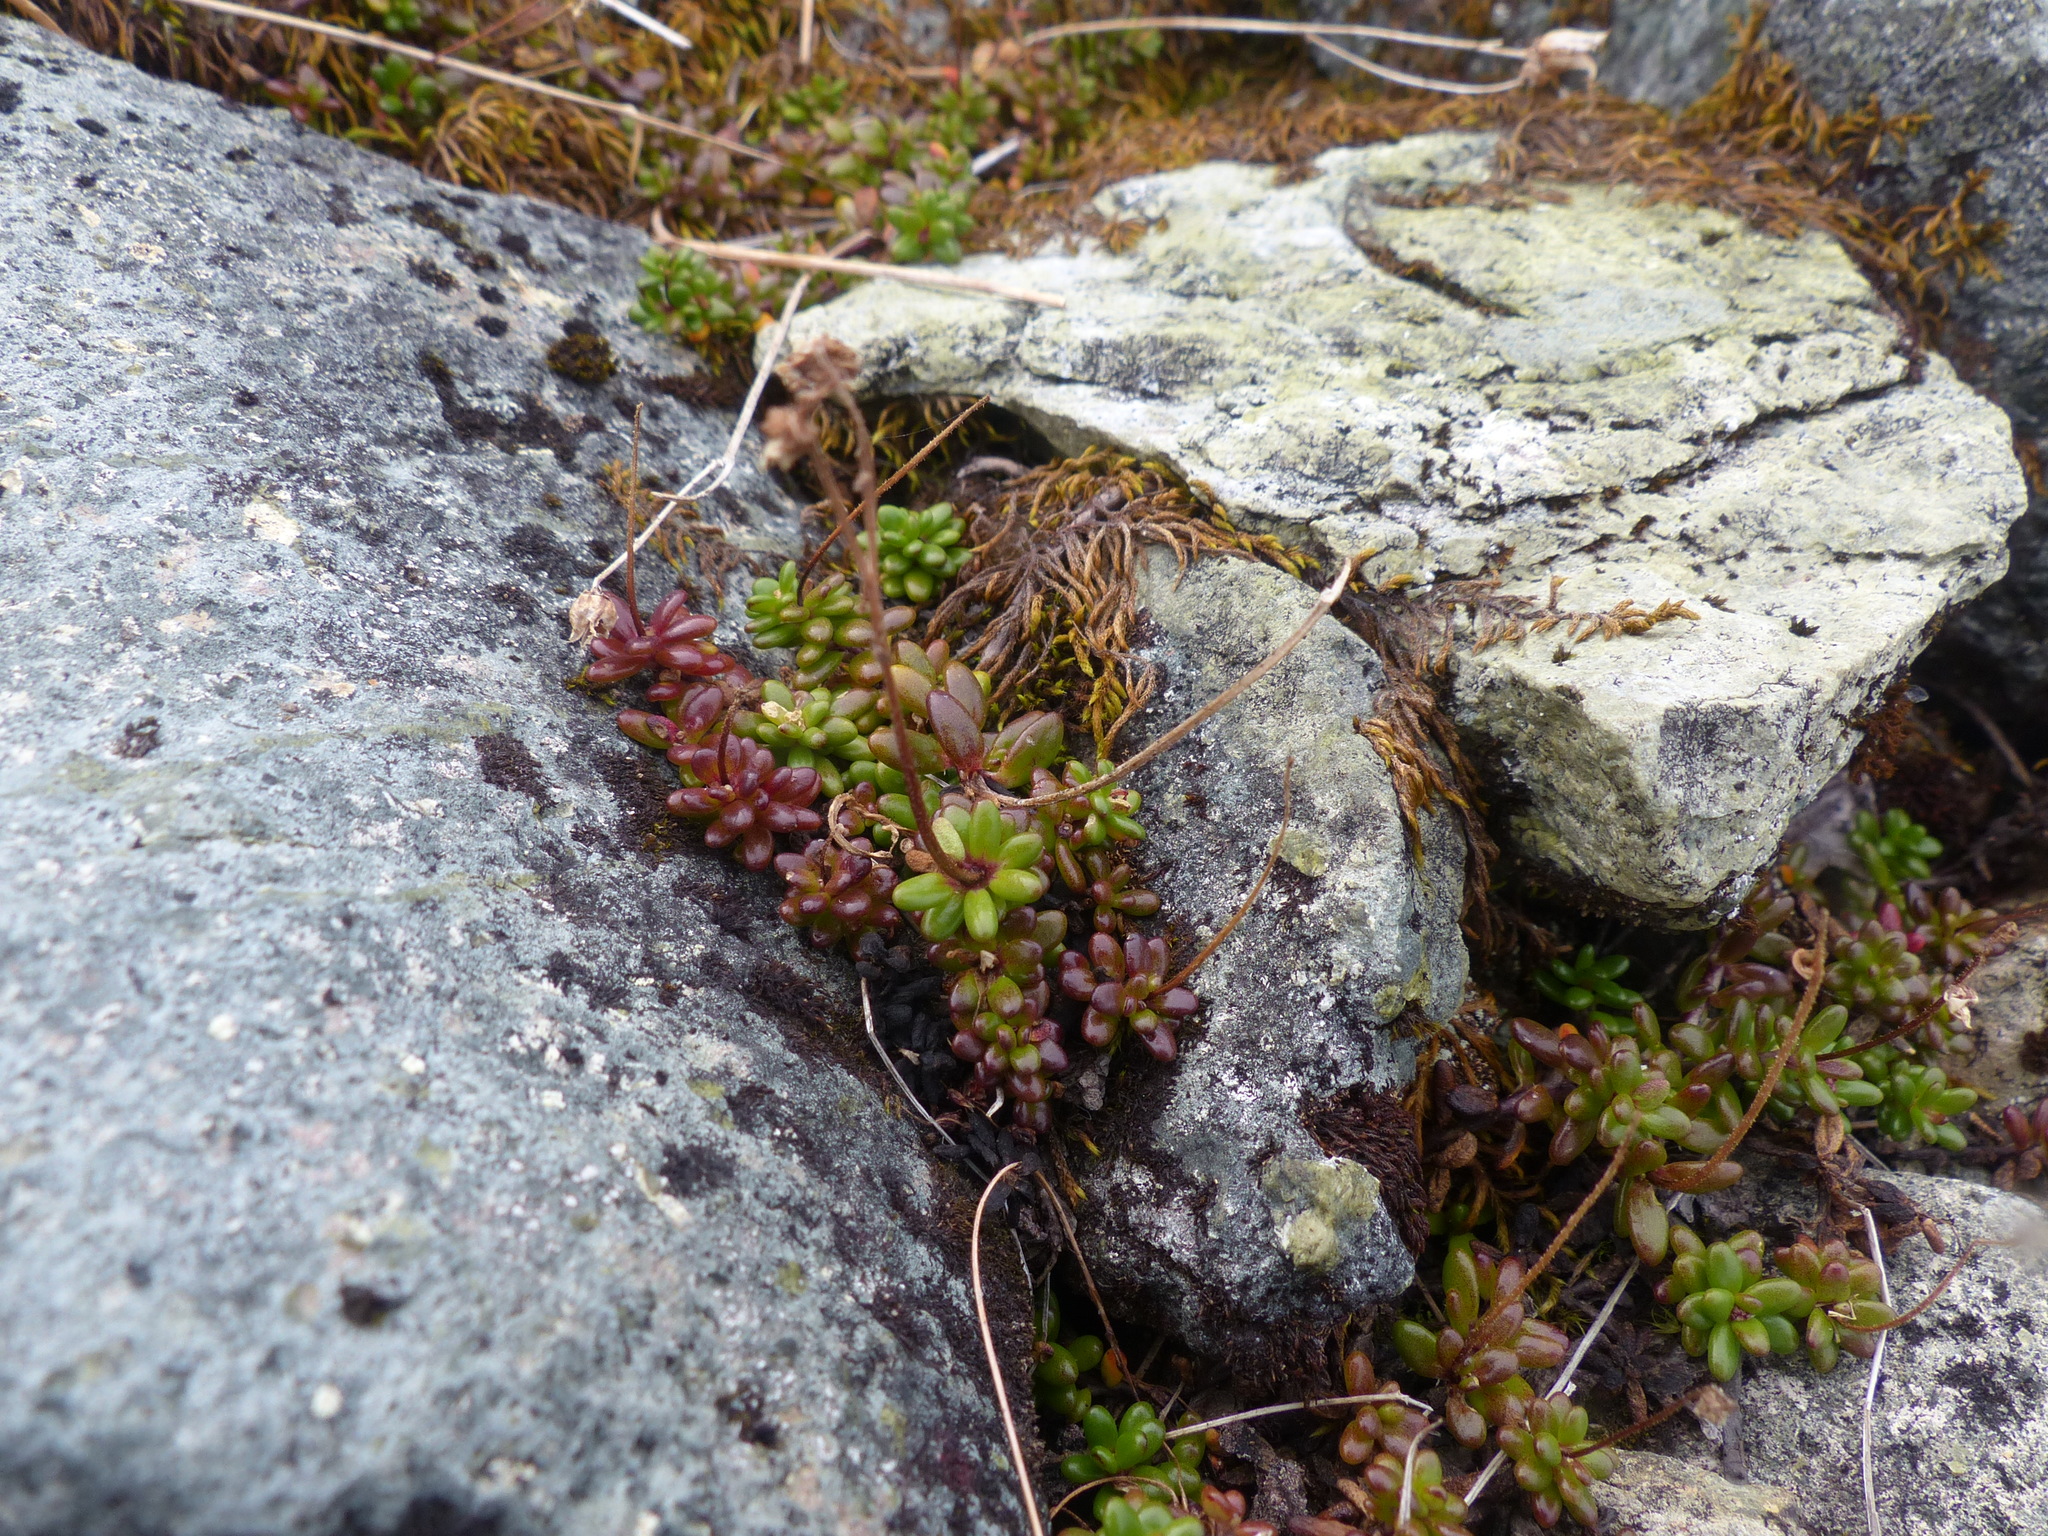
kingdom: Plantae
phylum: Tracheophyta
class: Magnoliopsida
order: Saxifragales
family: Saxifragaceae
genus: Micranthes
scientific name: Micranthes tolmiei
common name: Tolmie's saxifrage
